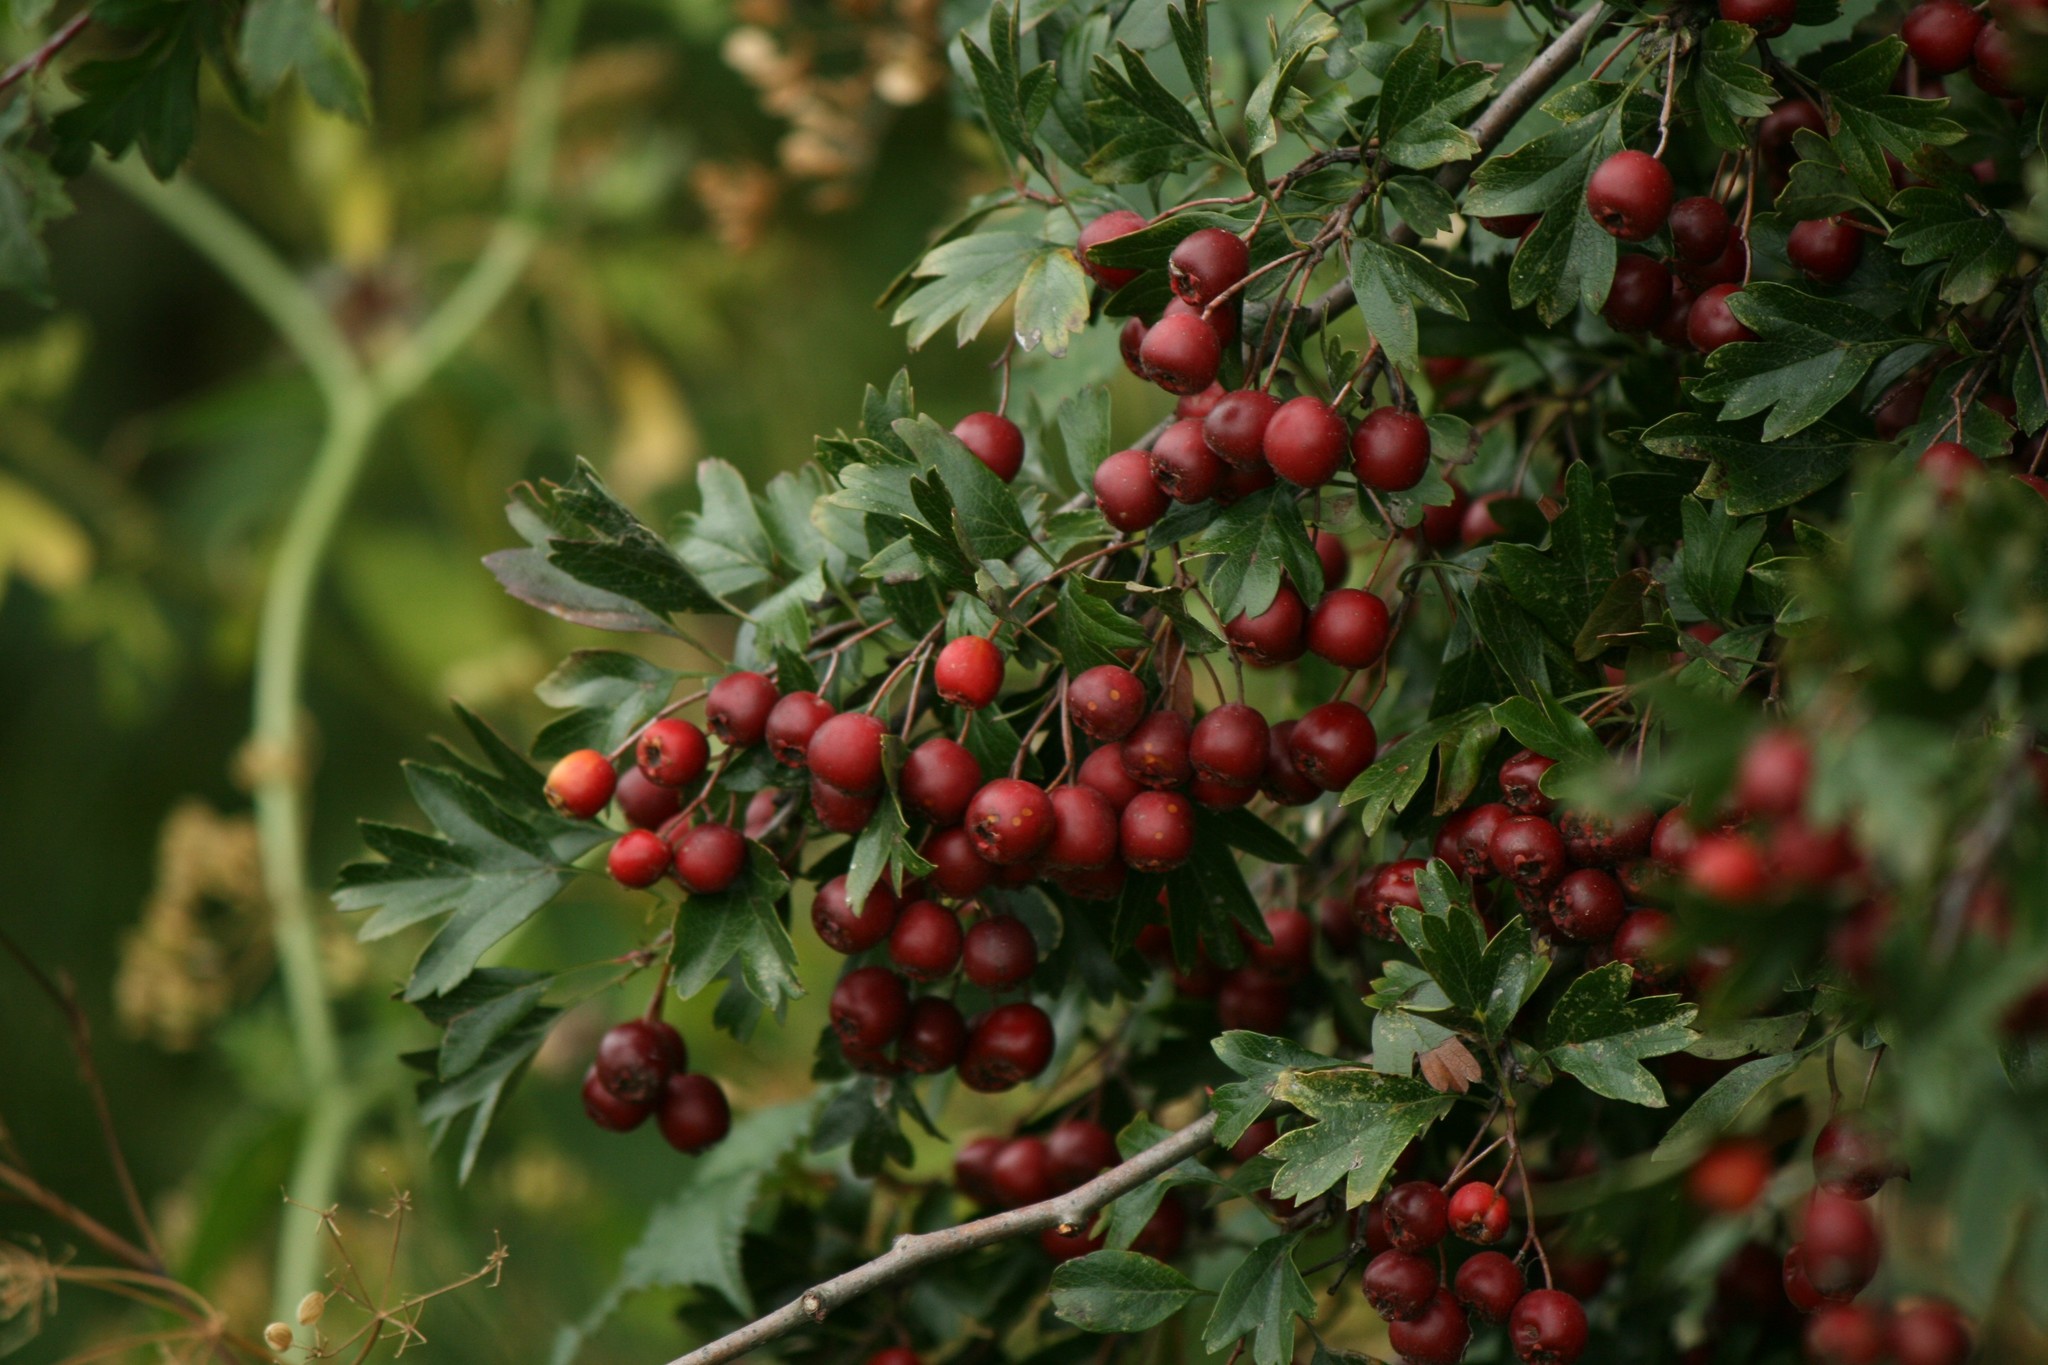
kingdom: Plantae
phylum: Tracheophyta
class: Magnoliopsida
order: Rosales
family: Rosaceae
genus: Crataegus
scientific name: Crataegus monogyna
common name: Hawthorn
